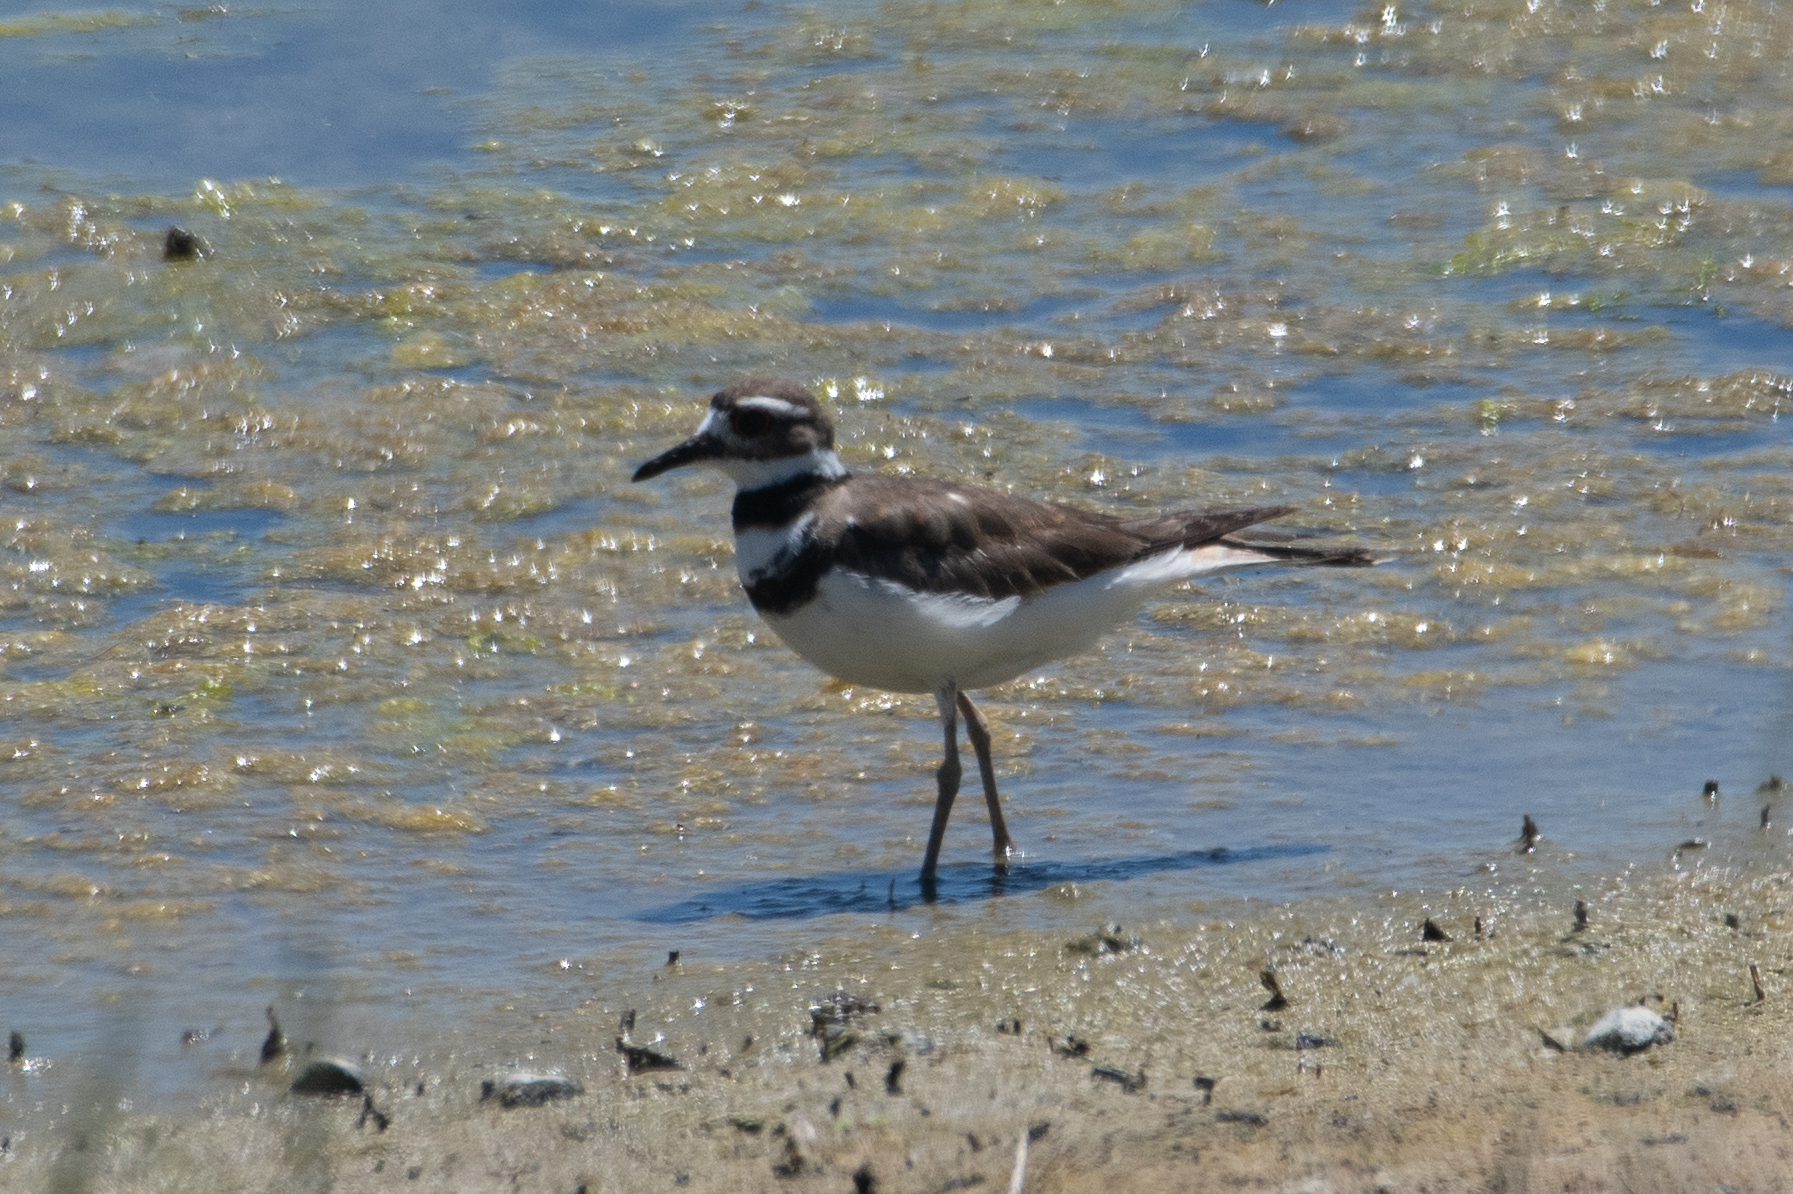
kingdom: Animalia
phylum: Chordata
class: Aves
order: Charadriiformes
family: Charadriidae
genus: Charadrius
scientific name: Charadrius vociferus
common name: Killdeer
